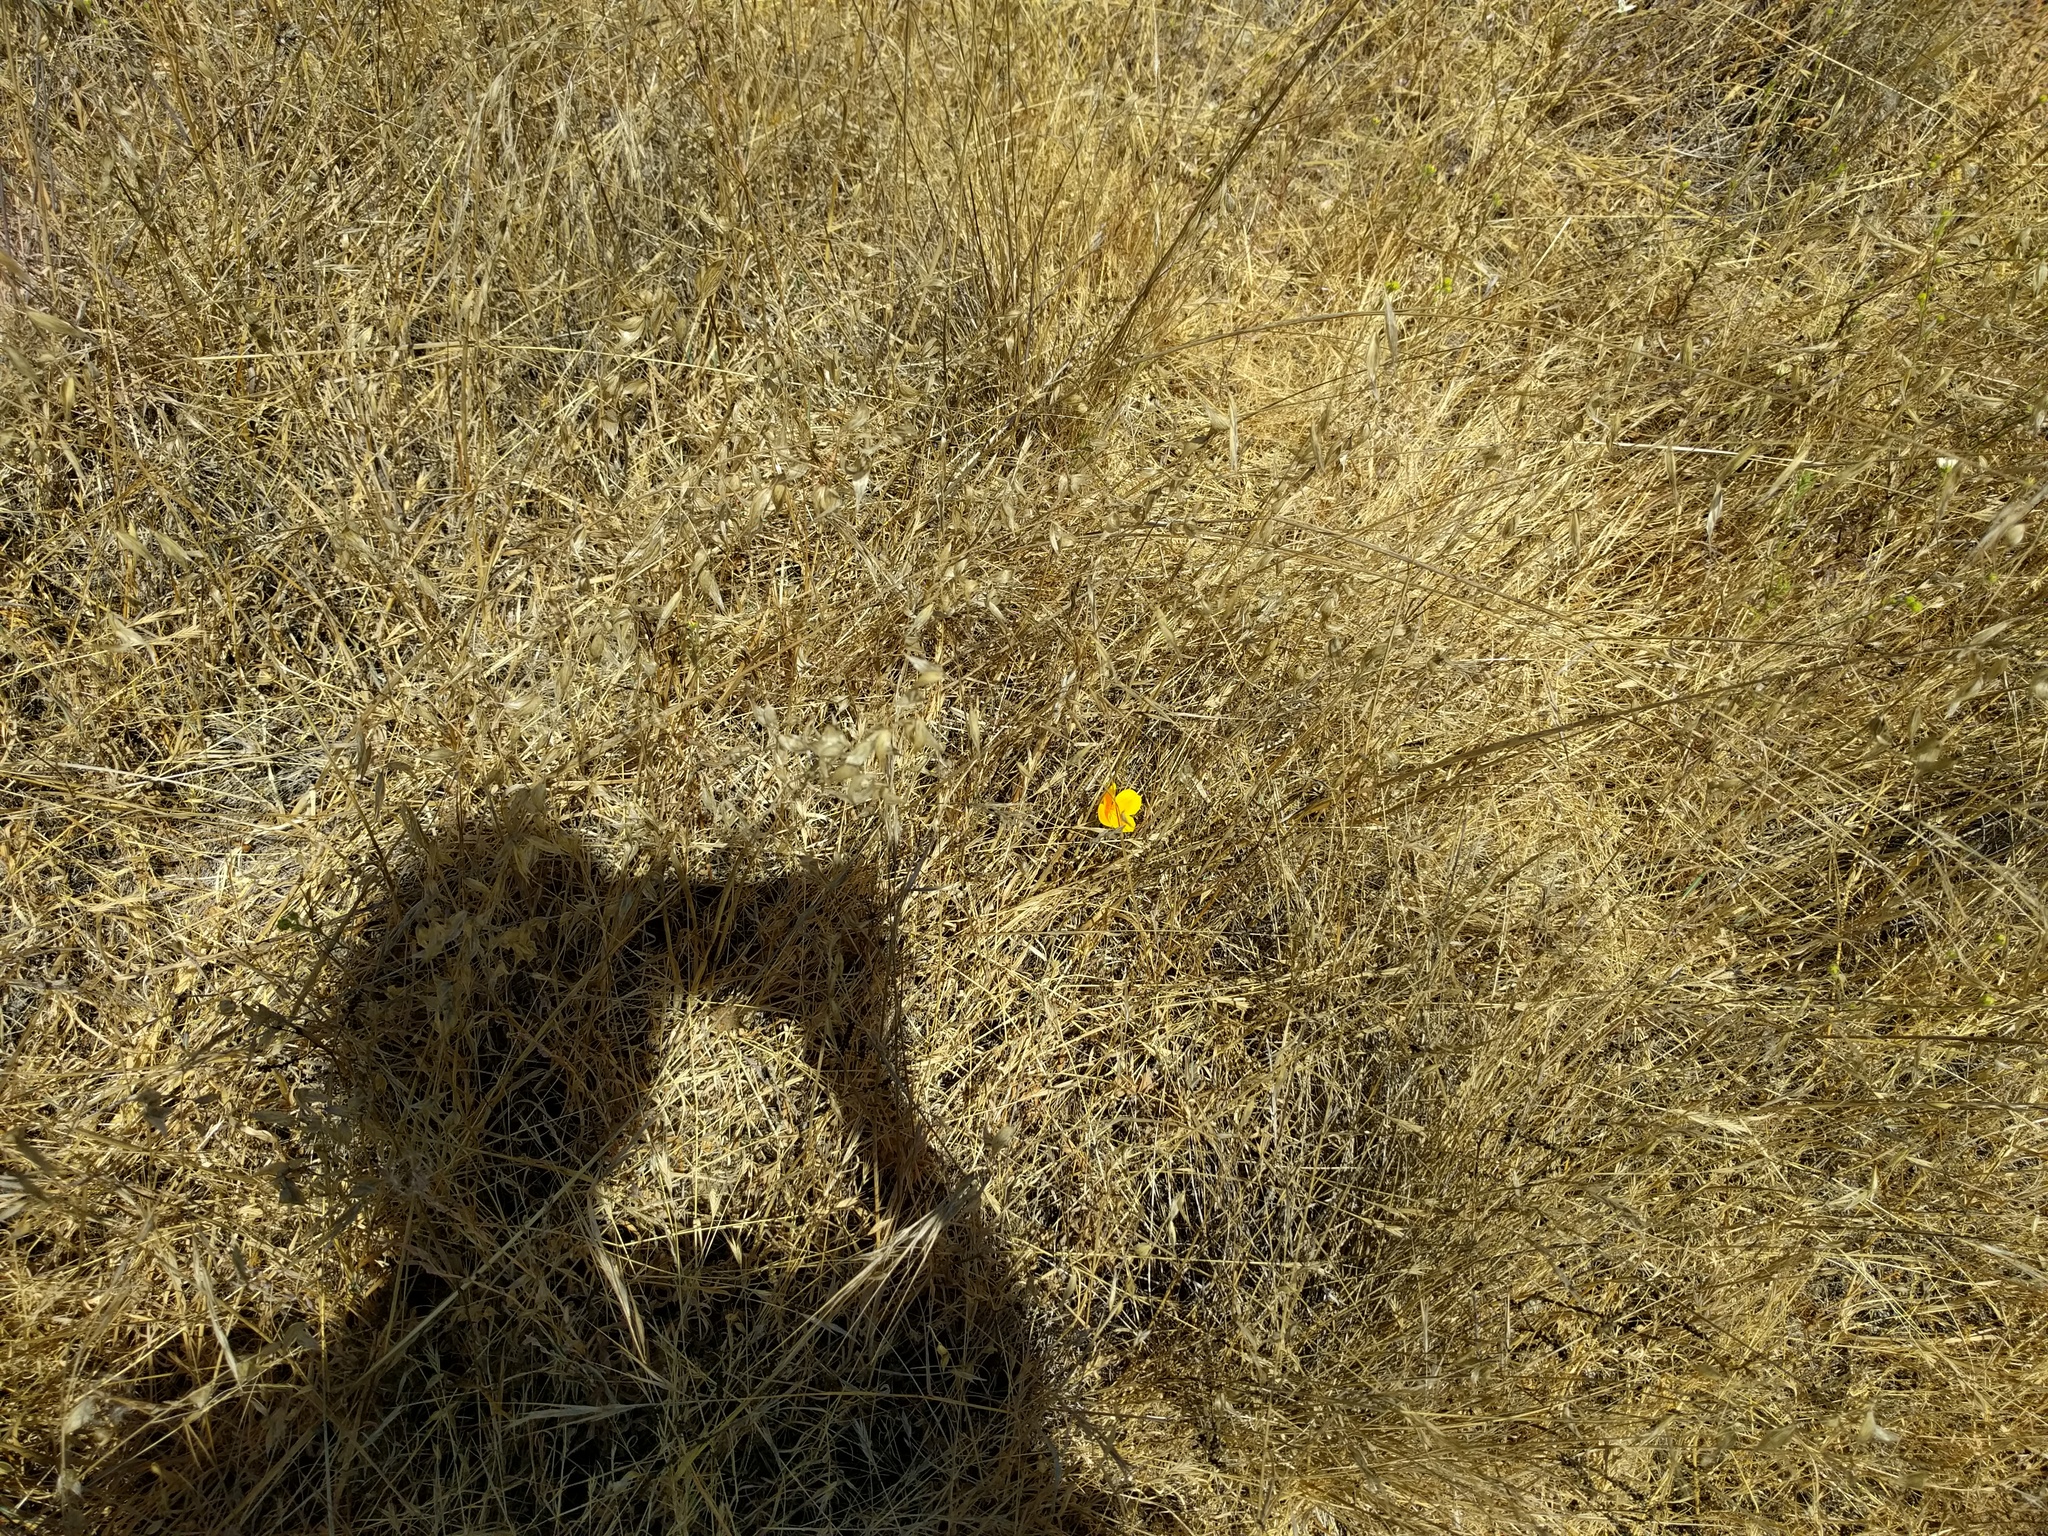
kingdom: Plantae
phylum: Tracheophyta
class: Magnoliopsida
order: Ranunculales
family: Papaveraceae
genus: Eschscholzia
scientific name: Eschscholzia californica
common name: California poppy
